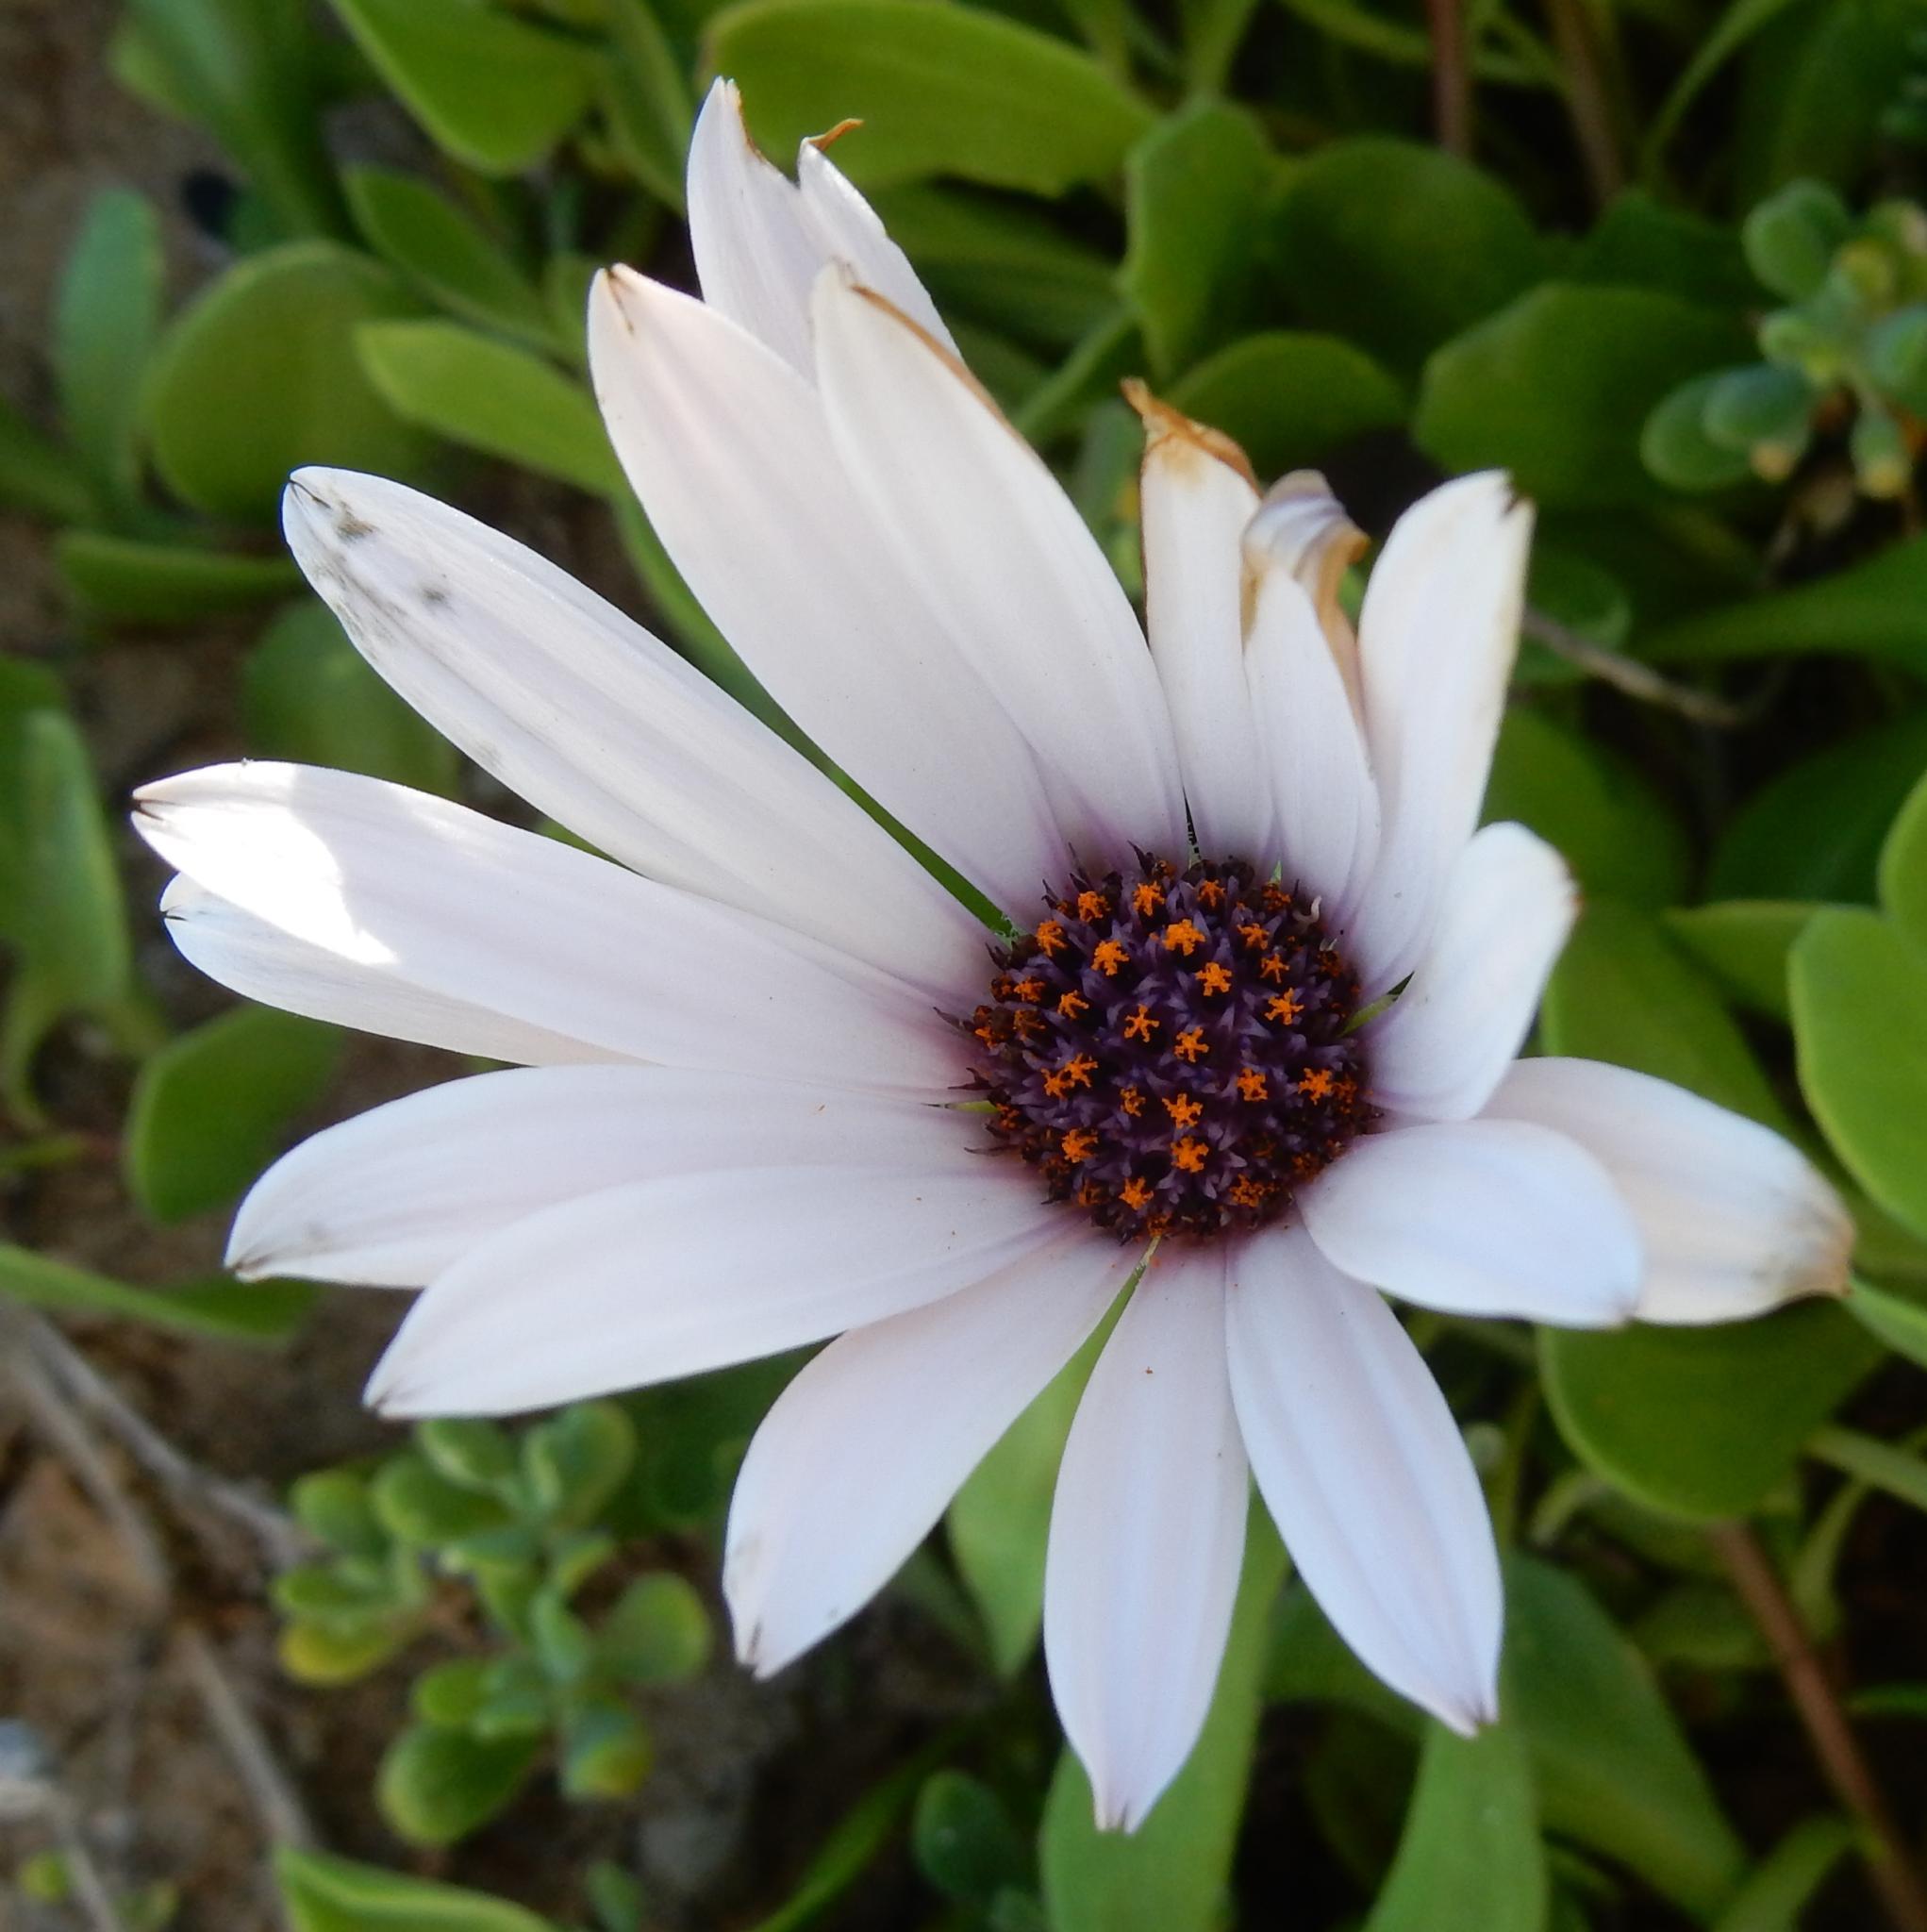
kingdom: Plantae
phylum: Tracheophyta
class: Magnoliopsida
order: Asterales
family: Asteraceae
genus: Dimorphotheca
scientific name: Dimorphotheca fruticosa
